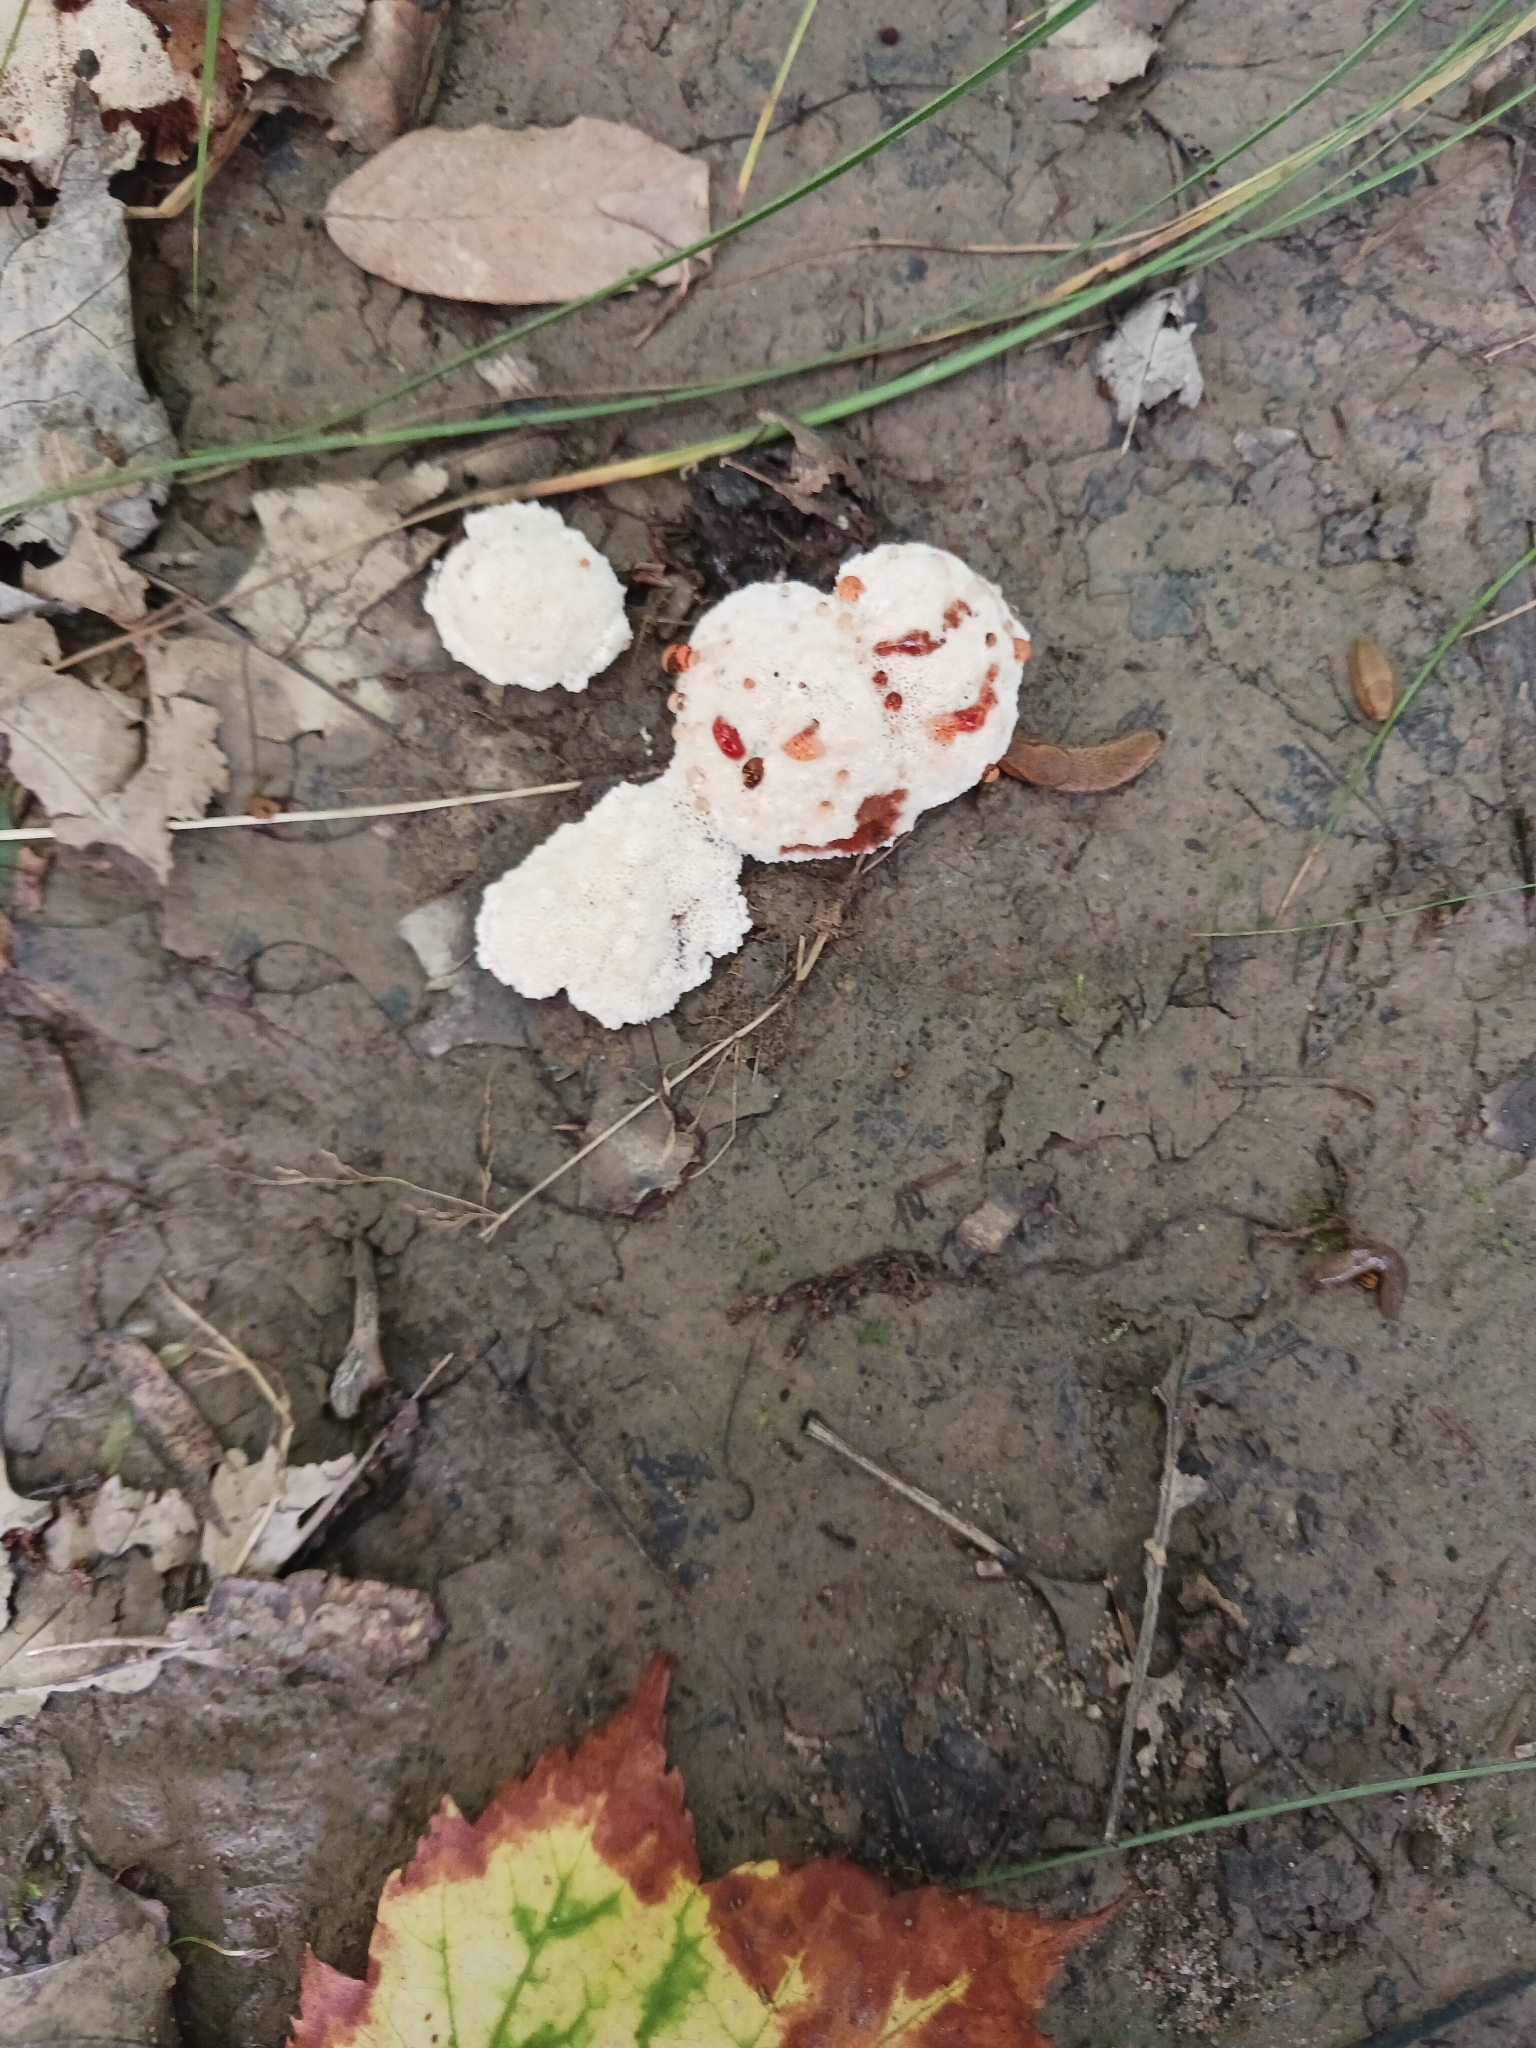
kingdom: Fungi
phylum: Basidiomycota
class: Agaricomycetes
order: Polyporales
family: Podoscyphaceae
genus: Abortiporus
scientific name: Abortiporus biennis
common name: Blushing rosette
